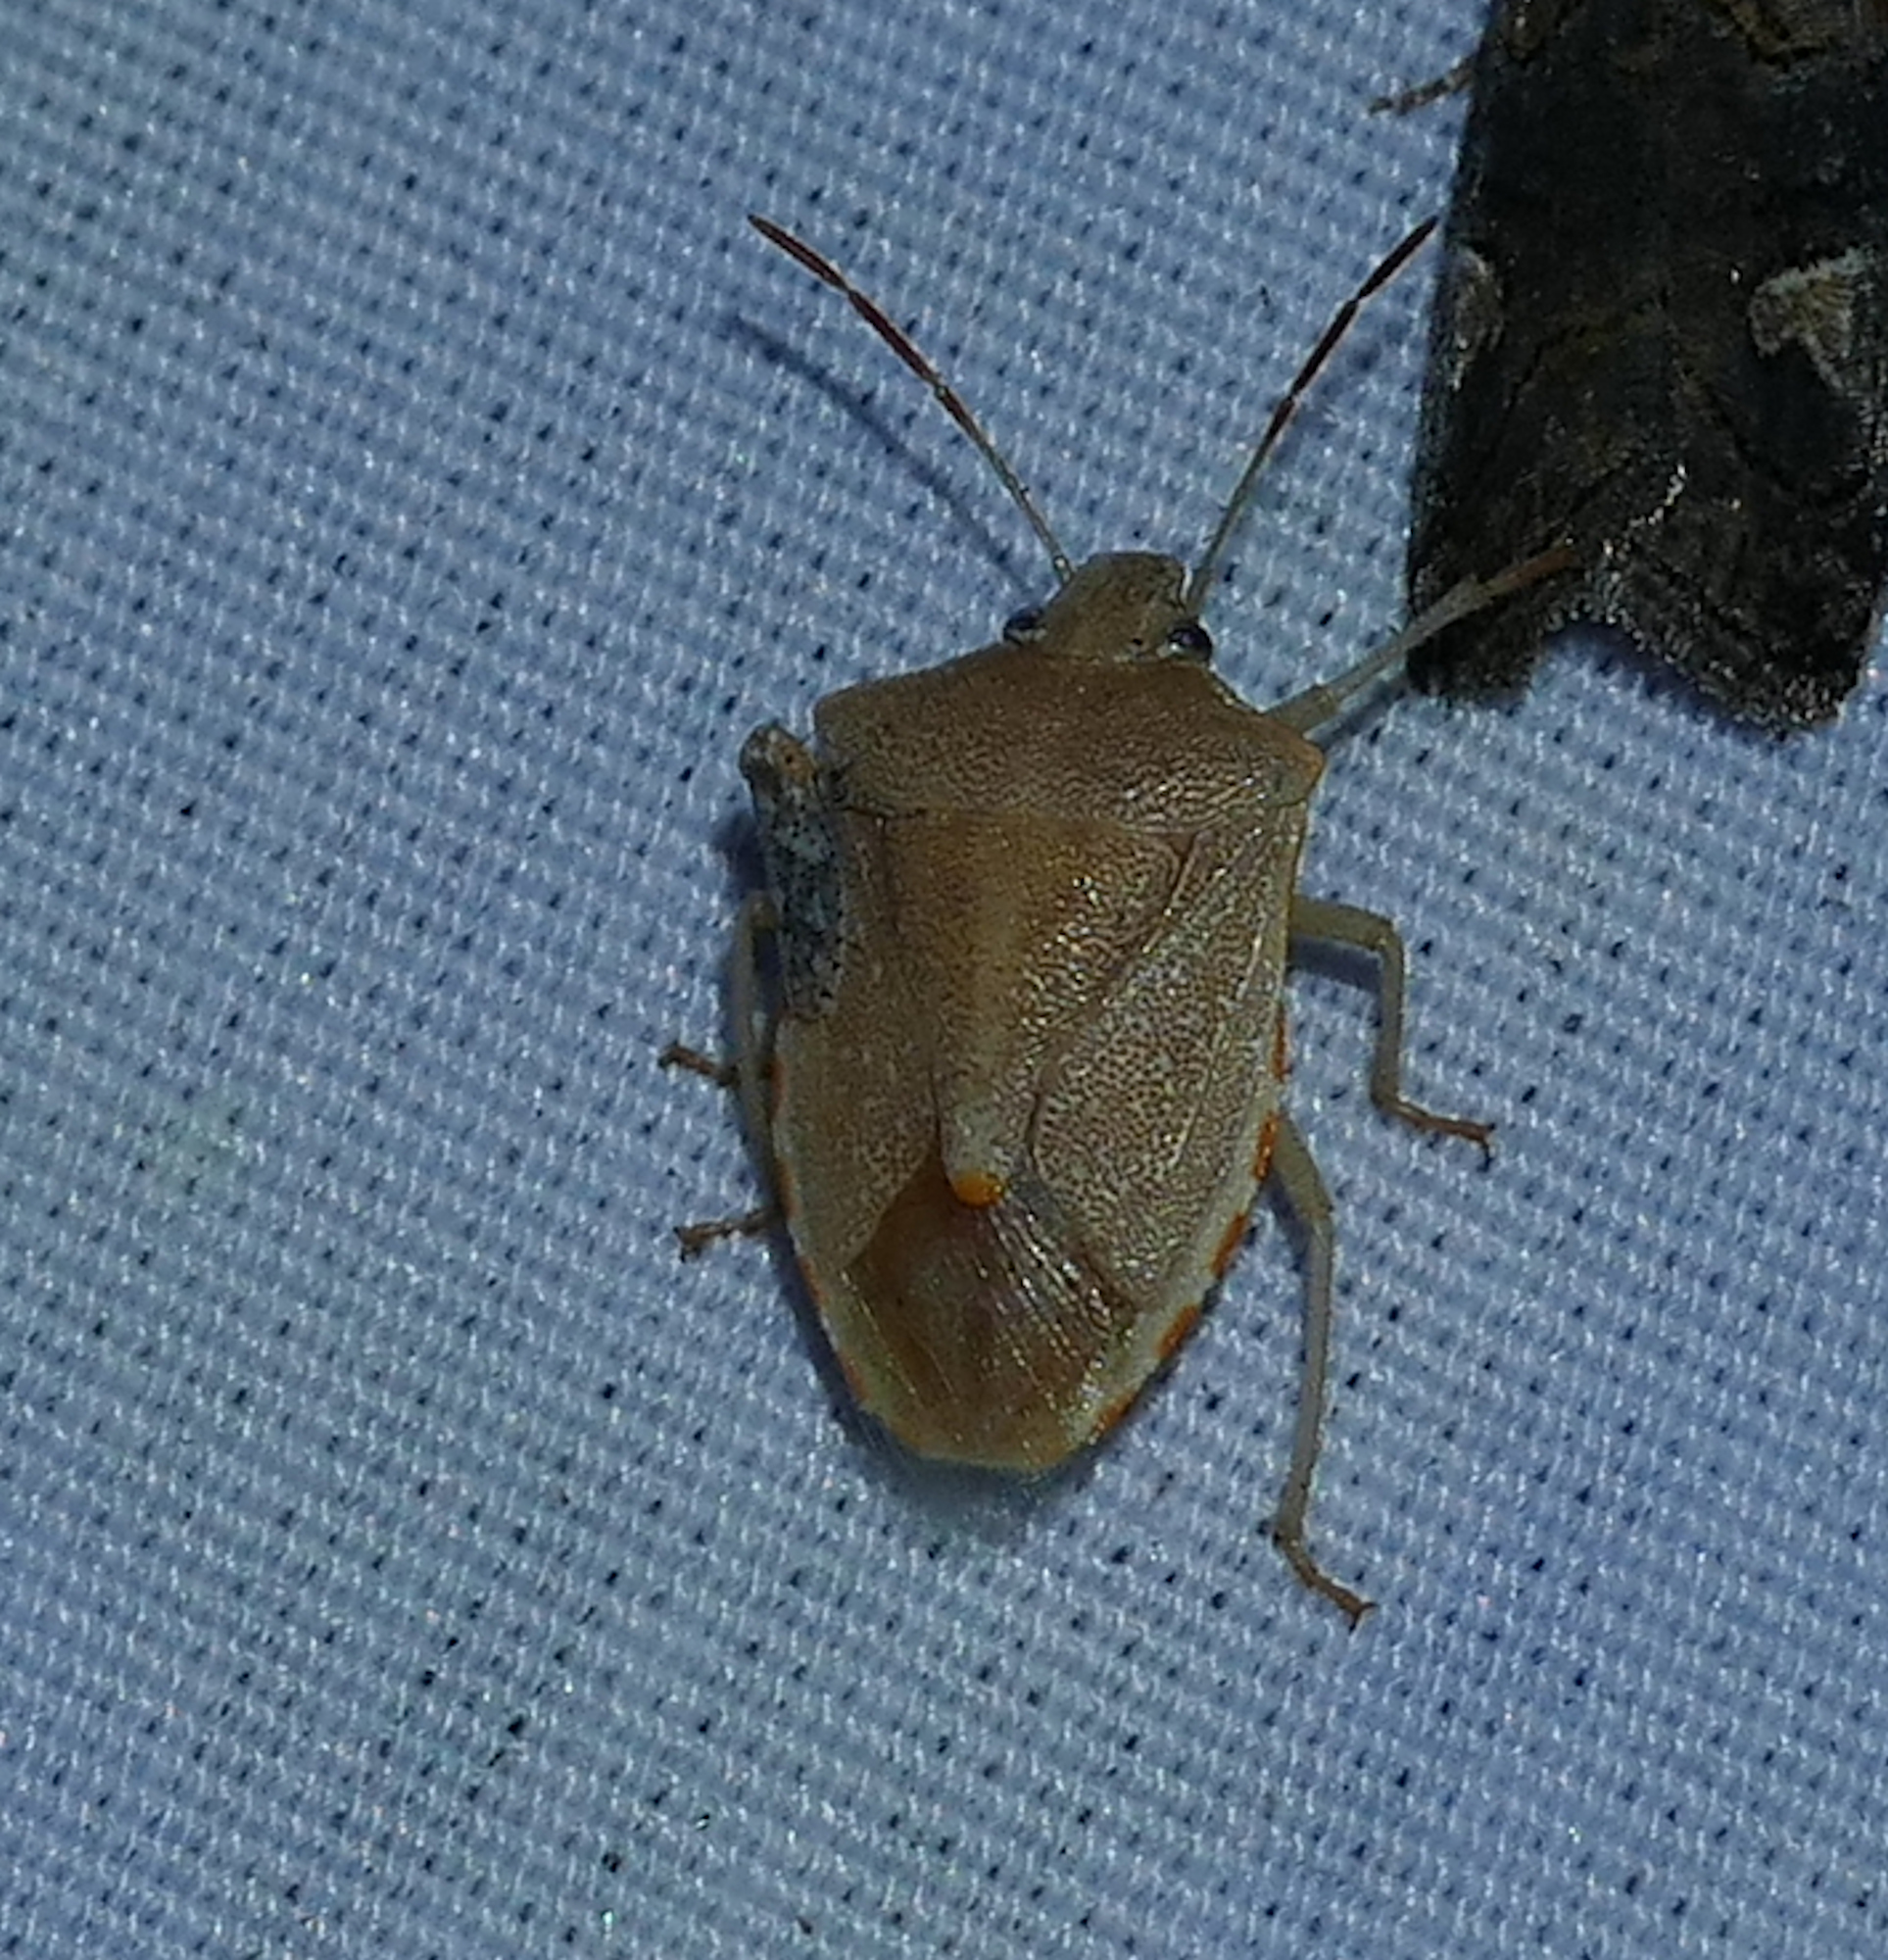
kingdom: Animalia
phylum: Arthropoda
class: Insecta
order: Hemiptera
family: Pentatomidae
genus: Thyanta
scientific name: Thyanta custator
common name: Stink bug
